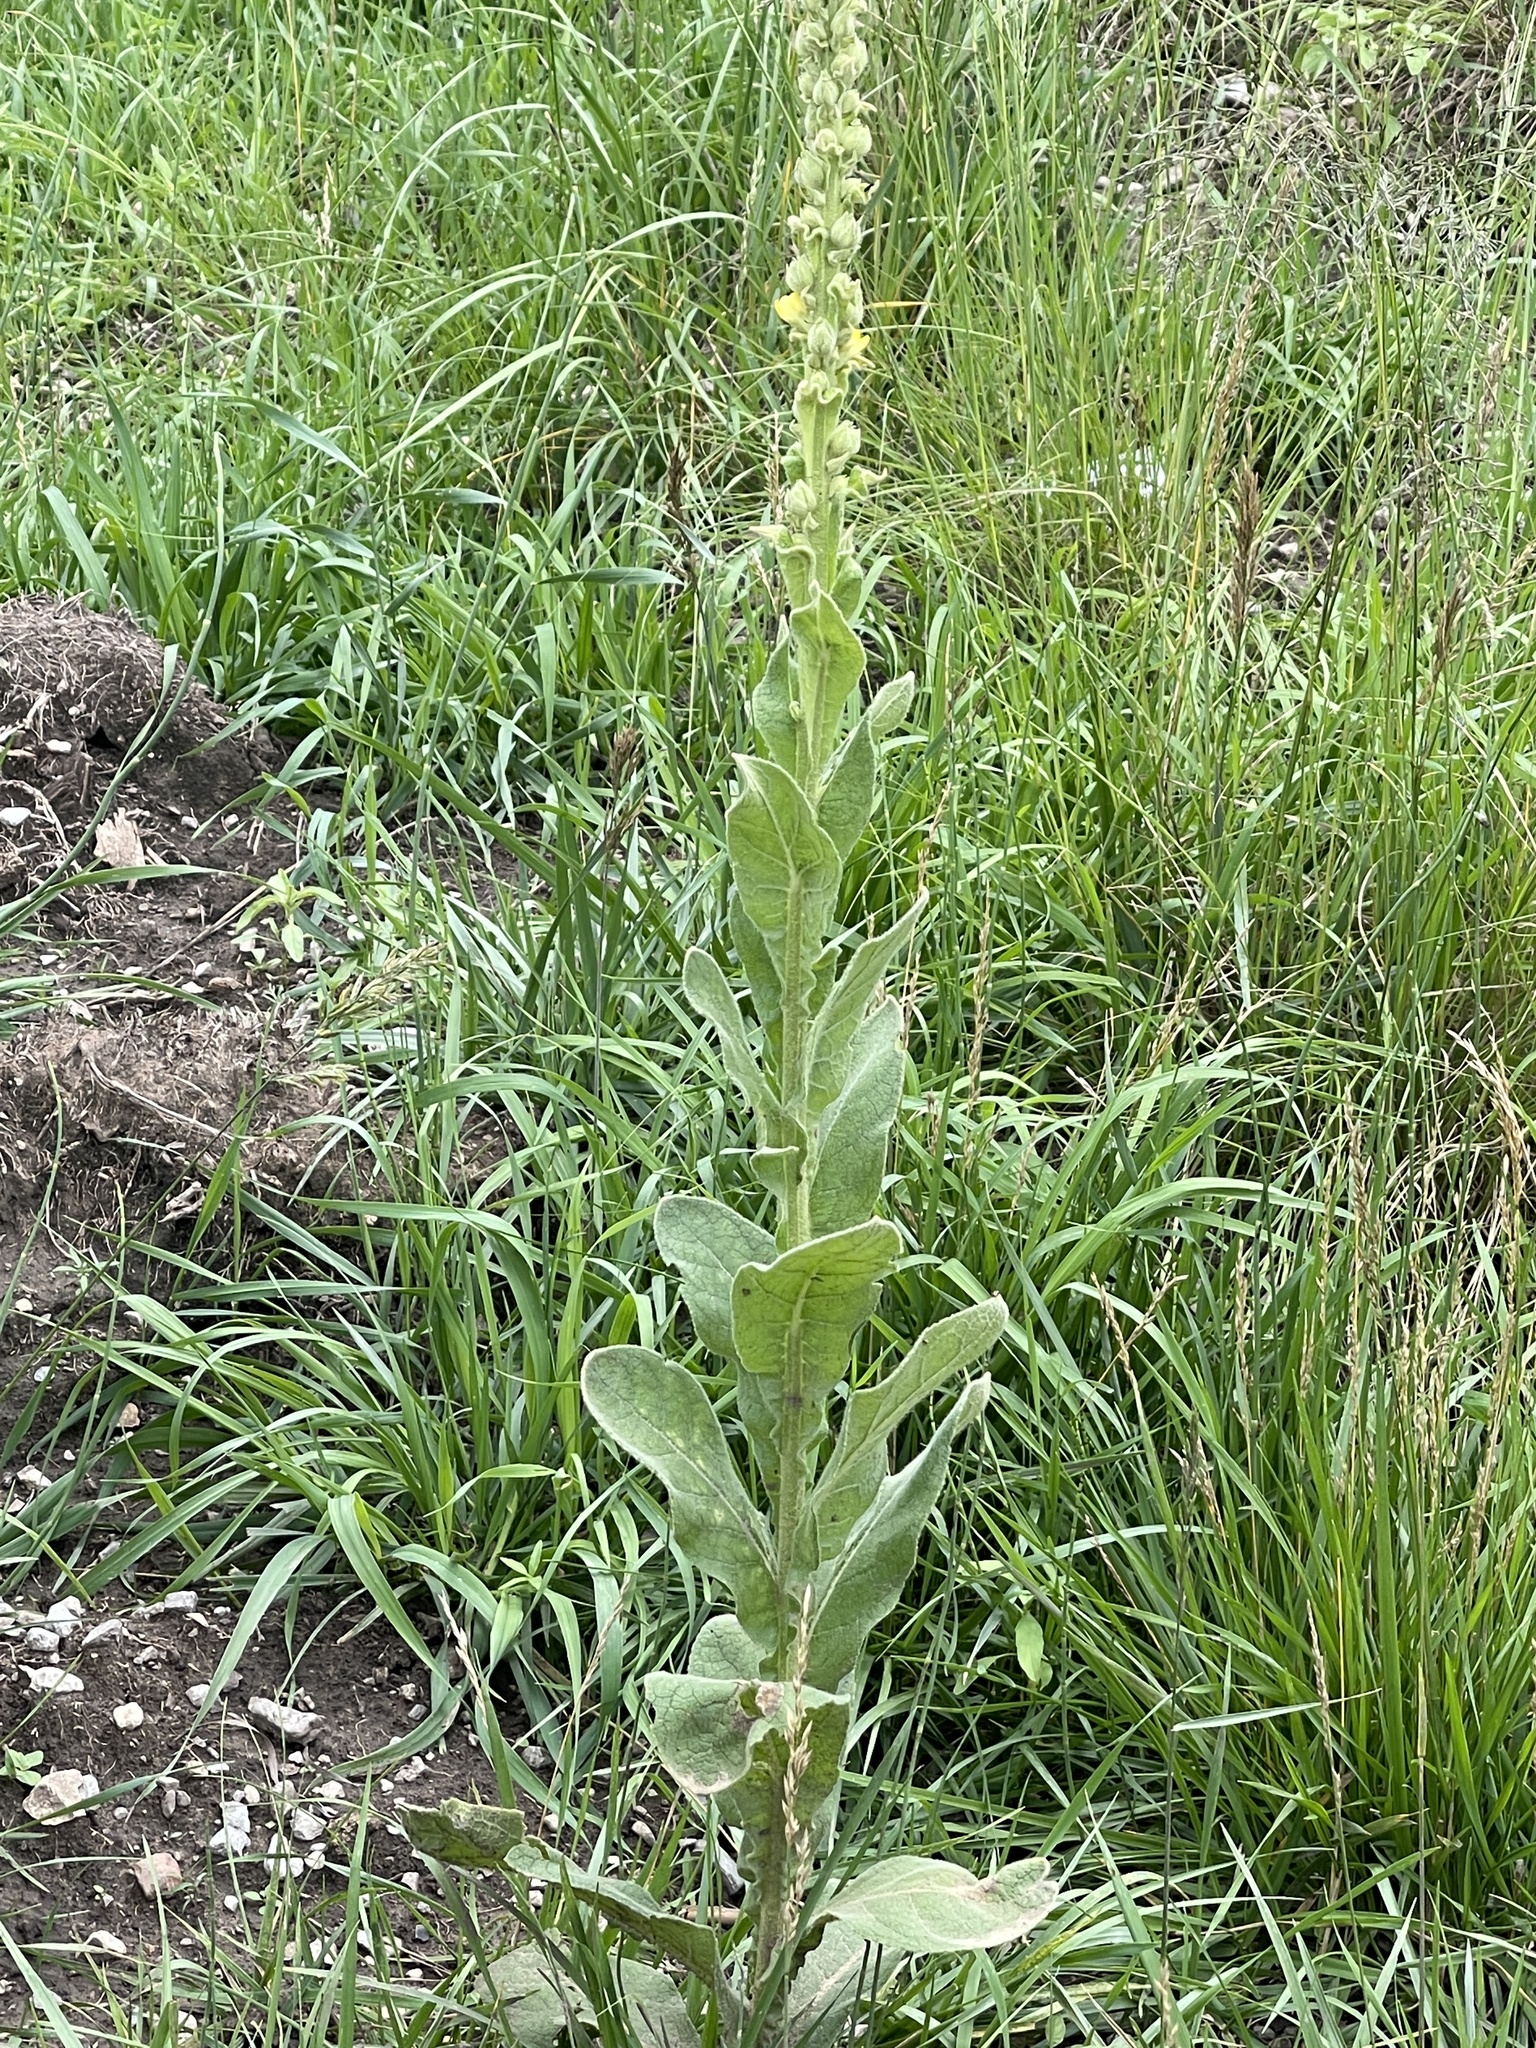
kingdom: Plantae
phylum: Tracheophyta
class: Magnoliopsida
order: Lamiales
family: Scrophulariaceae
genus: Verbascum
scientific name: Verbascum thapsus
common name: Common mullein
